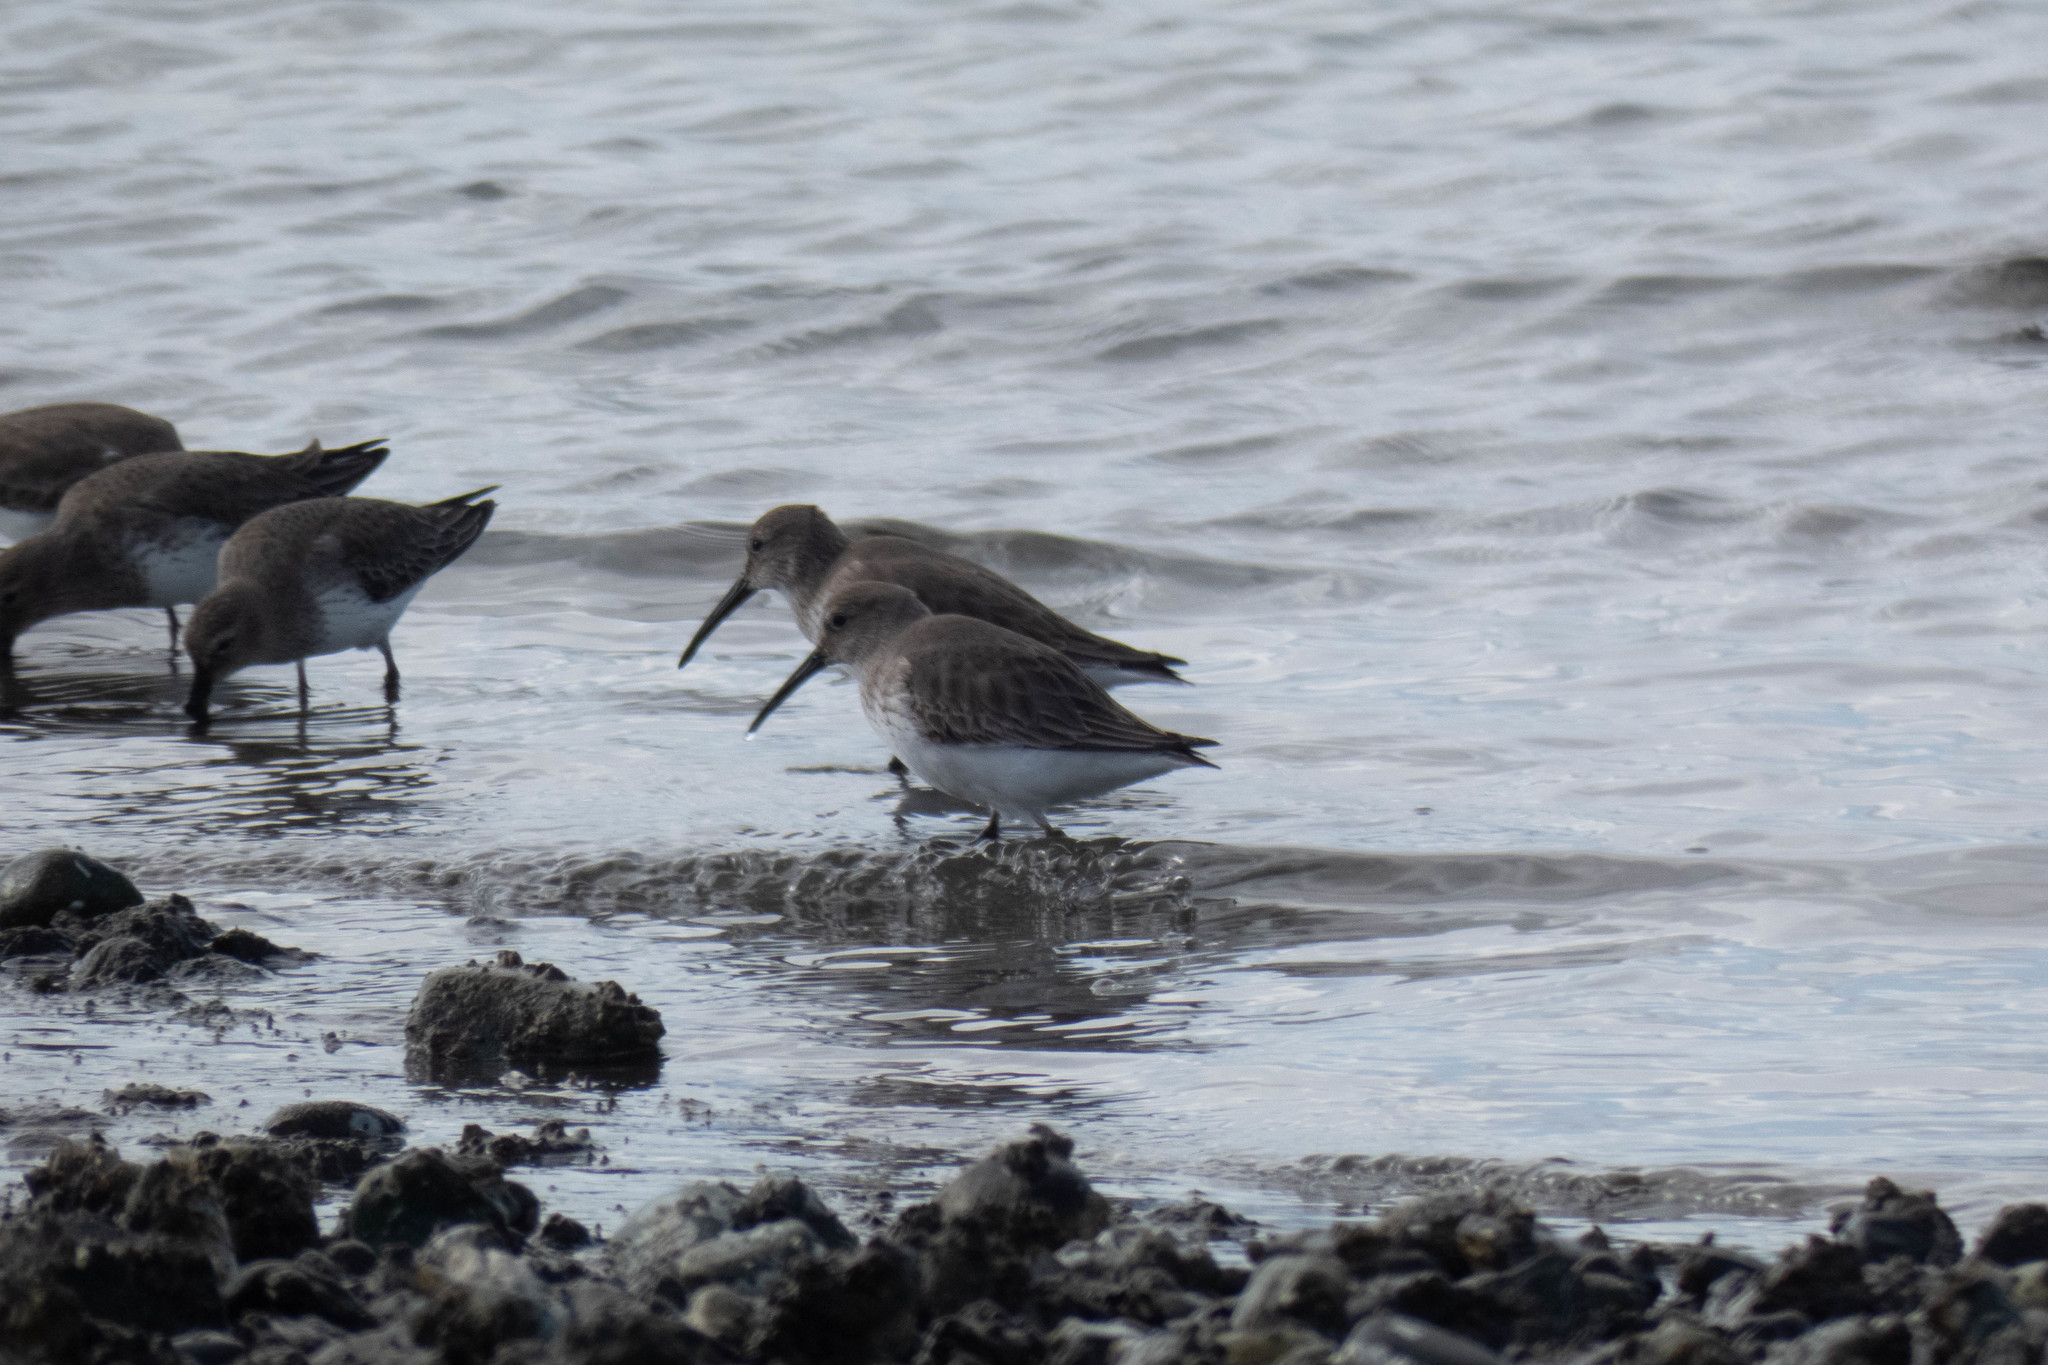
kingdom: Animalia
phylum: Chordata
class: Aves
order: Charadriiformes
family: Scolopacidae
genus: Calidris
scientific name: Calidris alpina
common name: Dunlin
